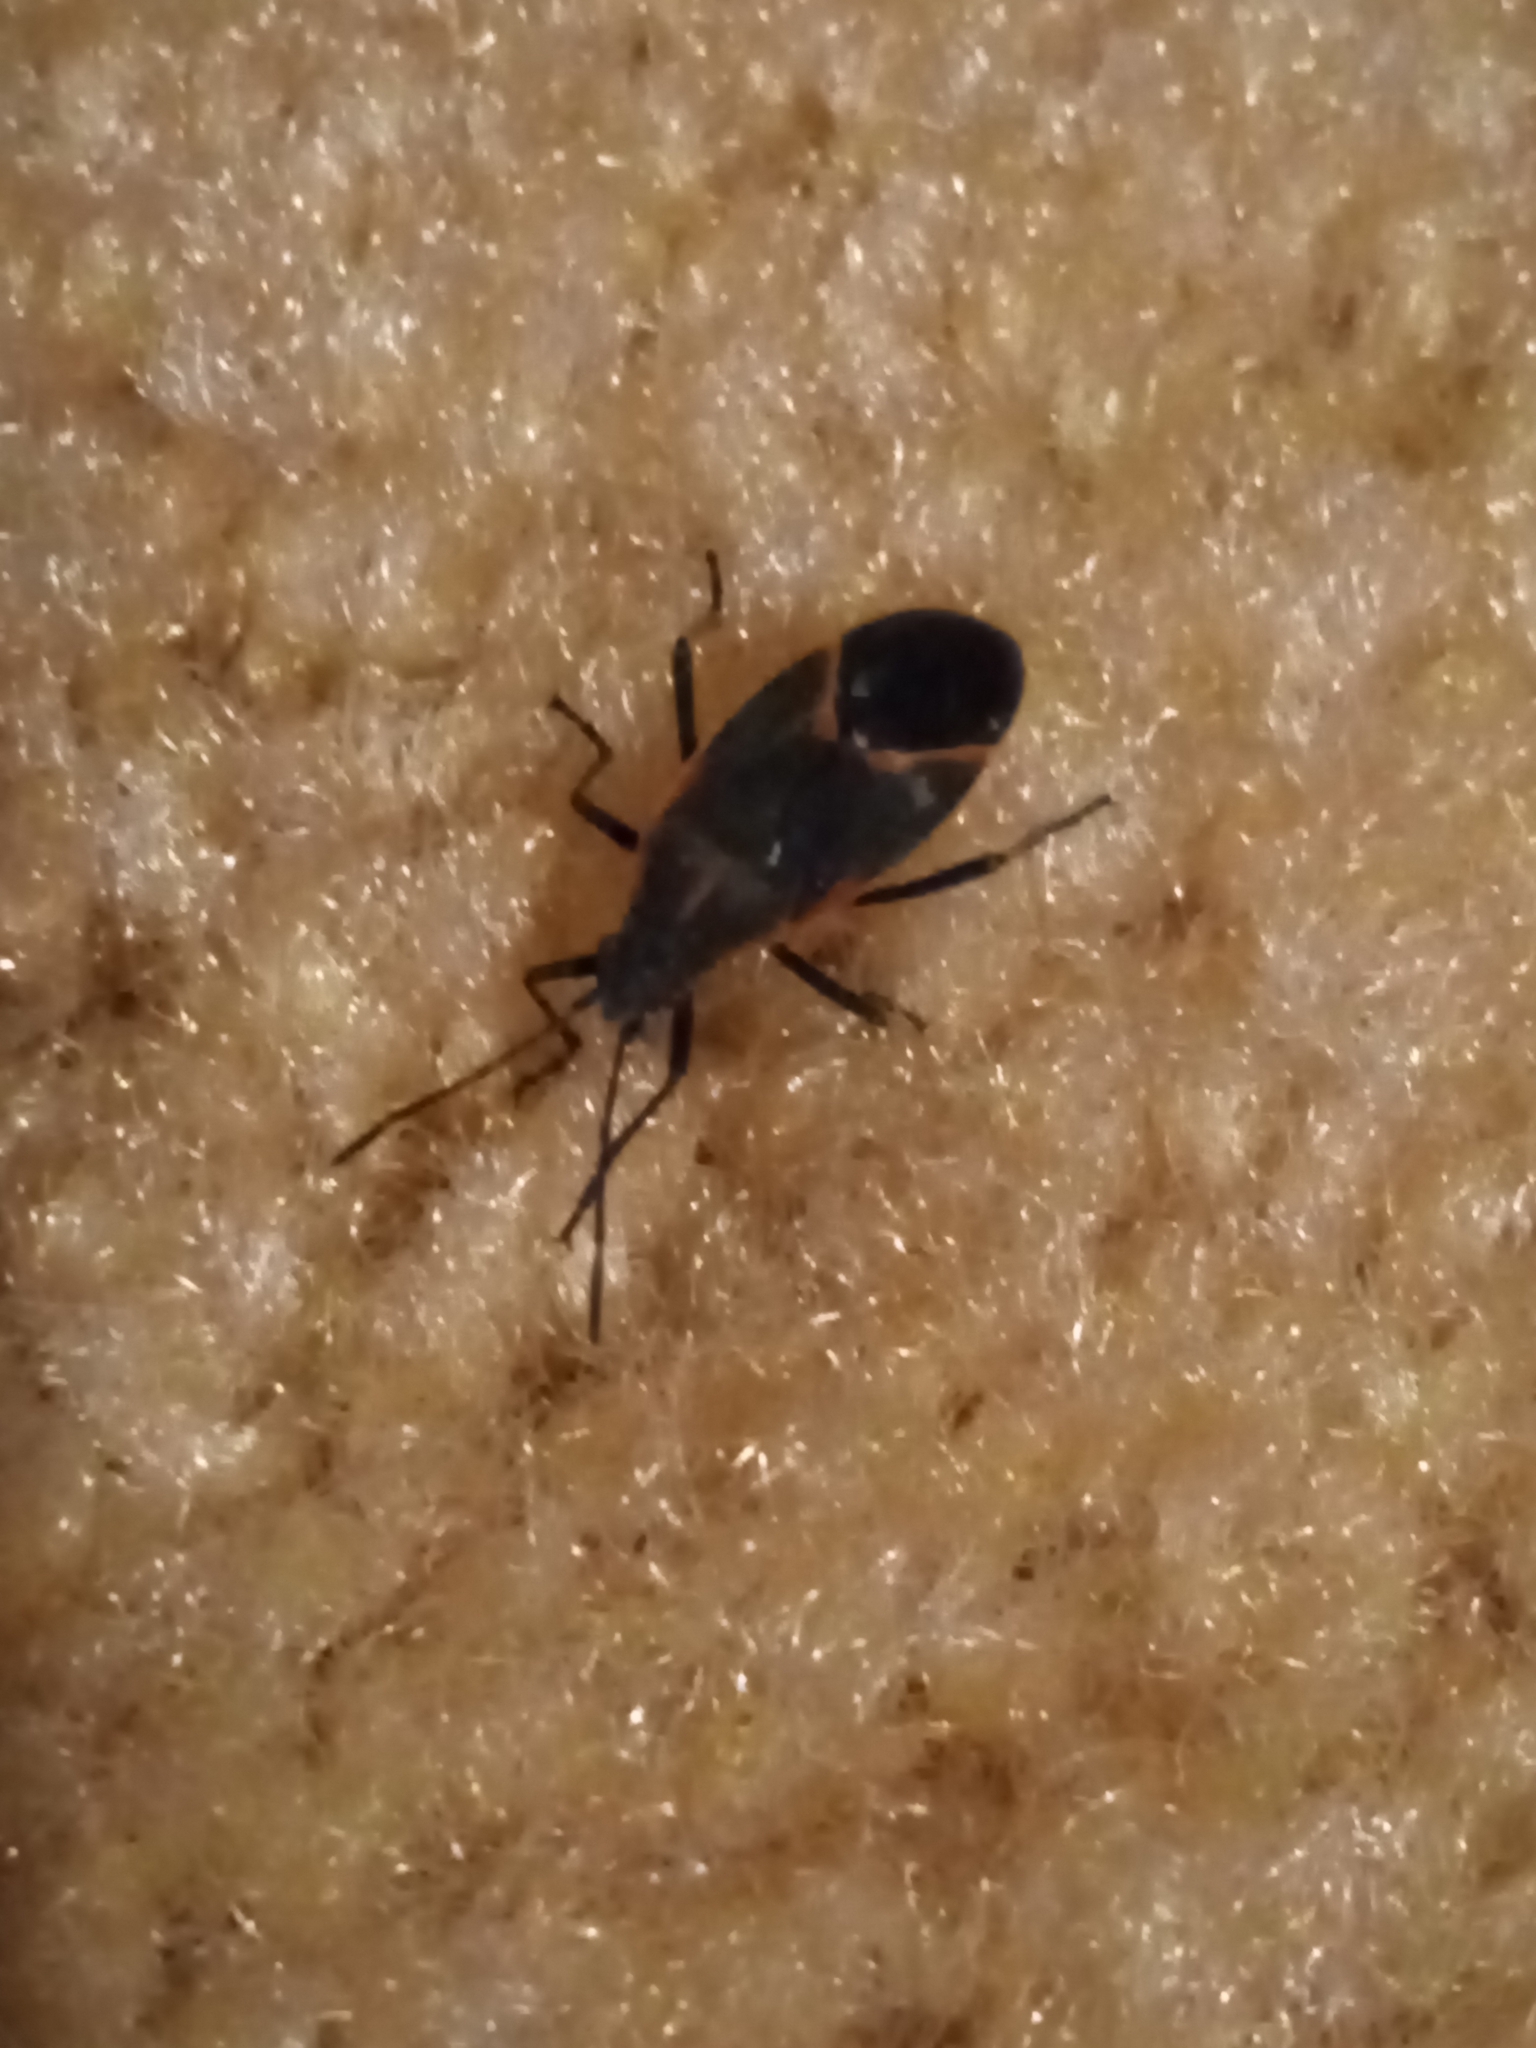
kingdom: Animalia
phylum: Arthropoda
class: Insecta
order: Hemiptera
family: Rhopalidae
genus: Boisea
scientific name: Boisea trivittata
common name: Boxelder bug
